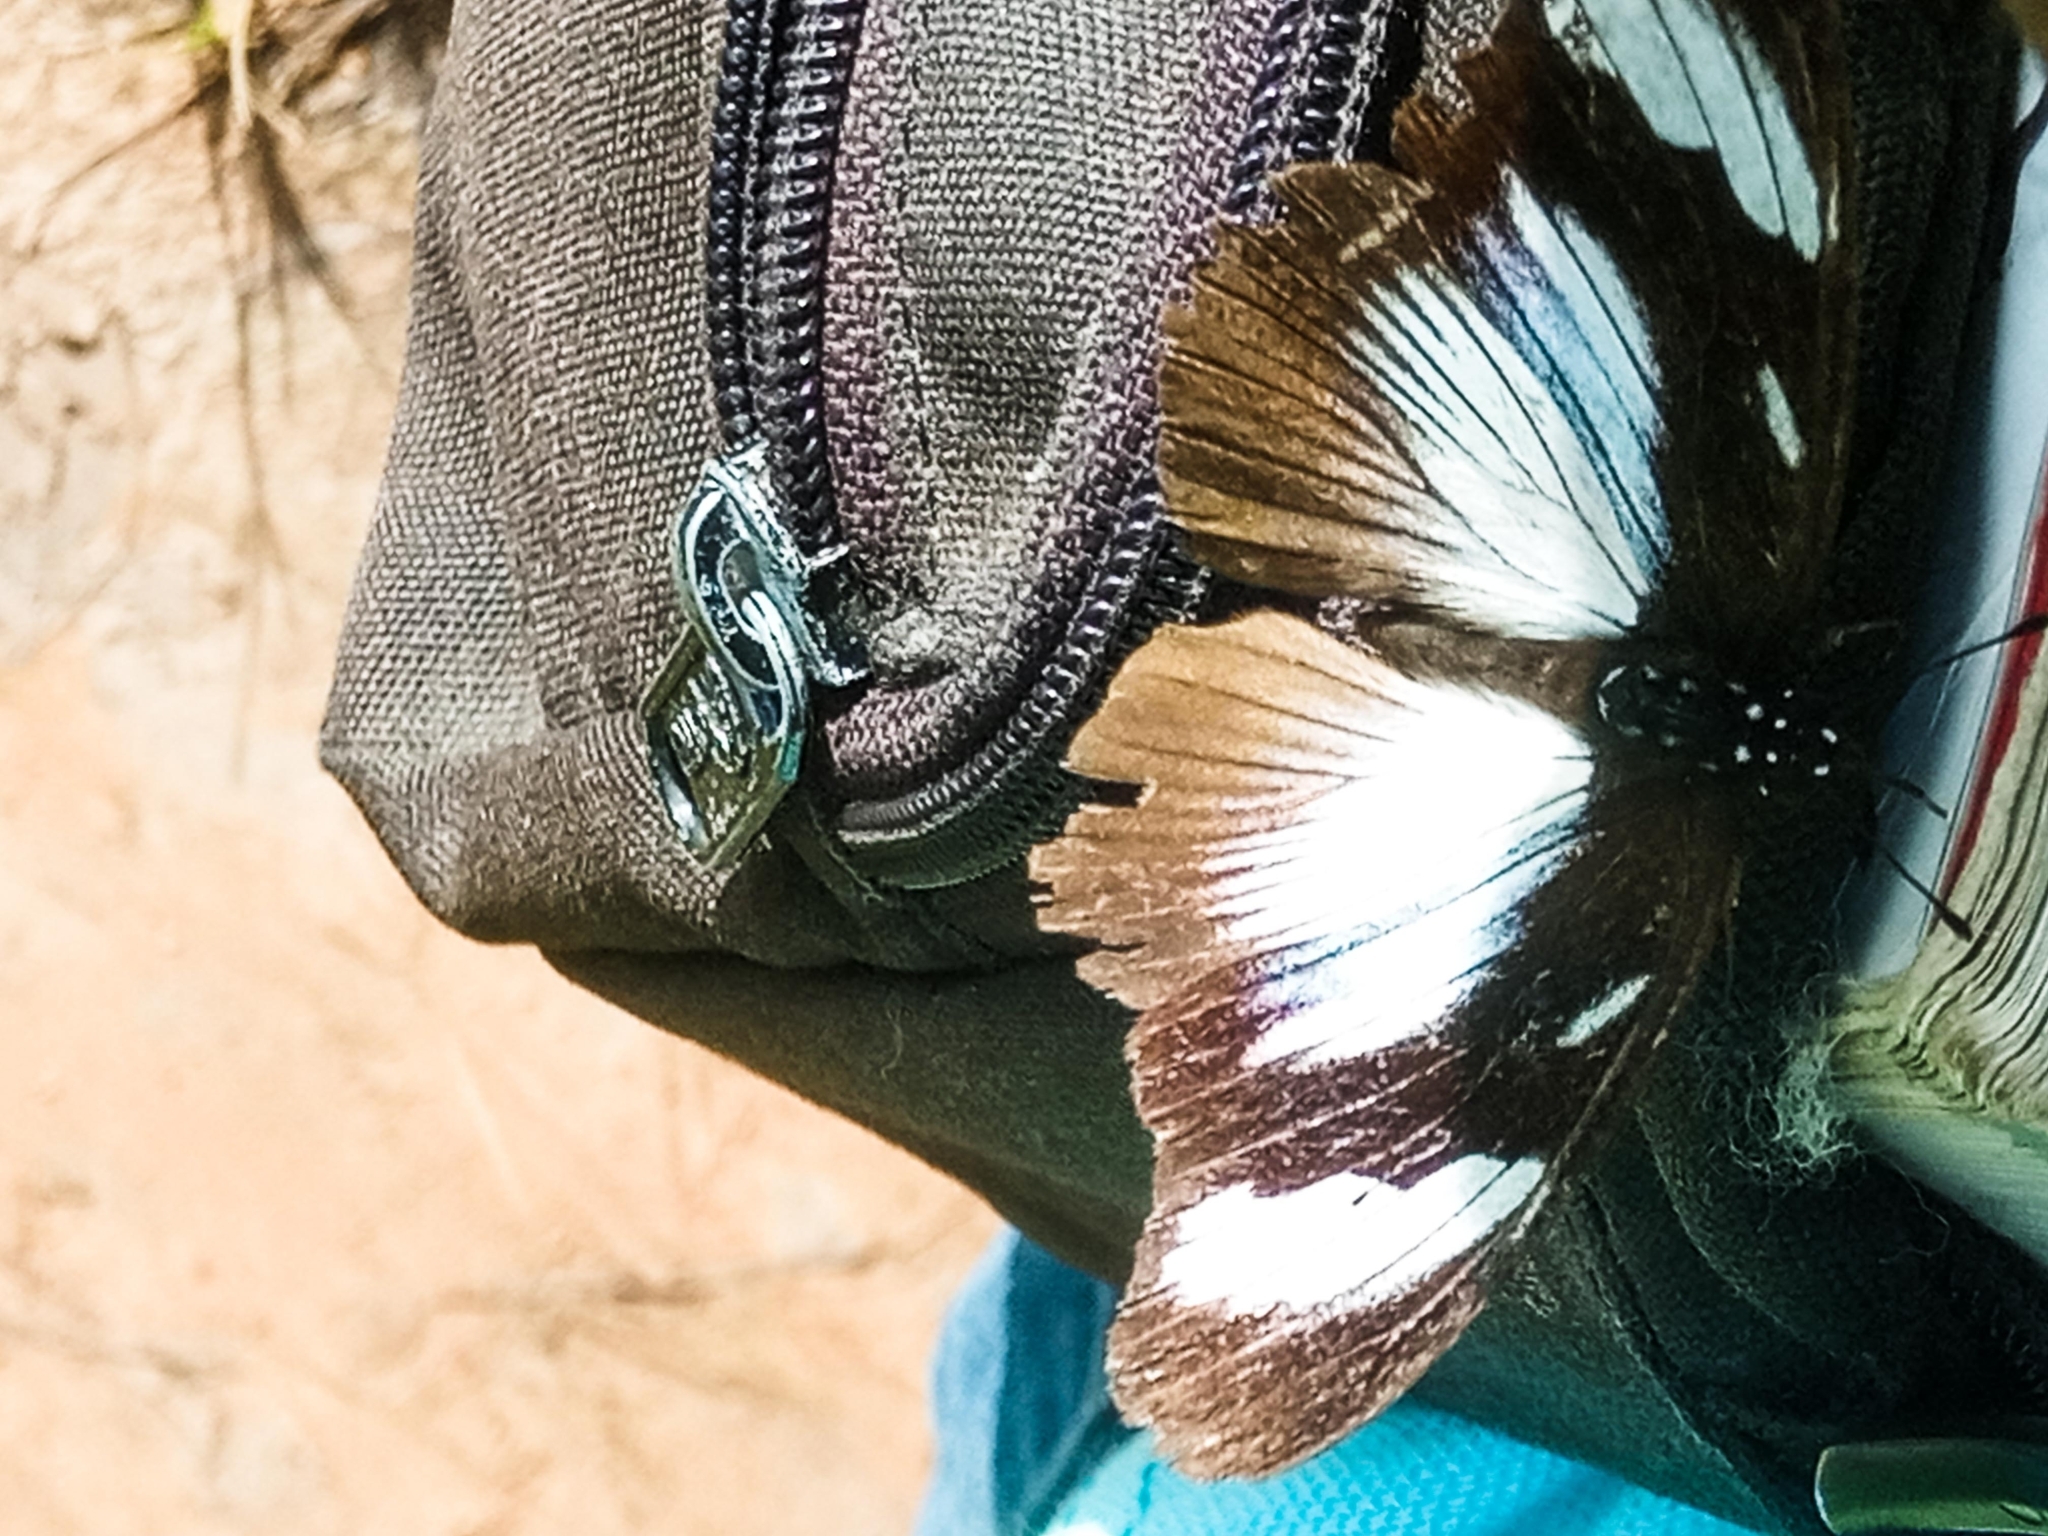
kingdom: Animalia
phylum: Arthropoda
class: Insecta
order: Lepidoptera
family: Nymphalidae
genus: Hypolimnas
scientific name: Hypolimnas dubius
